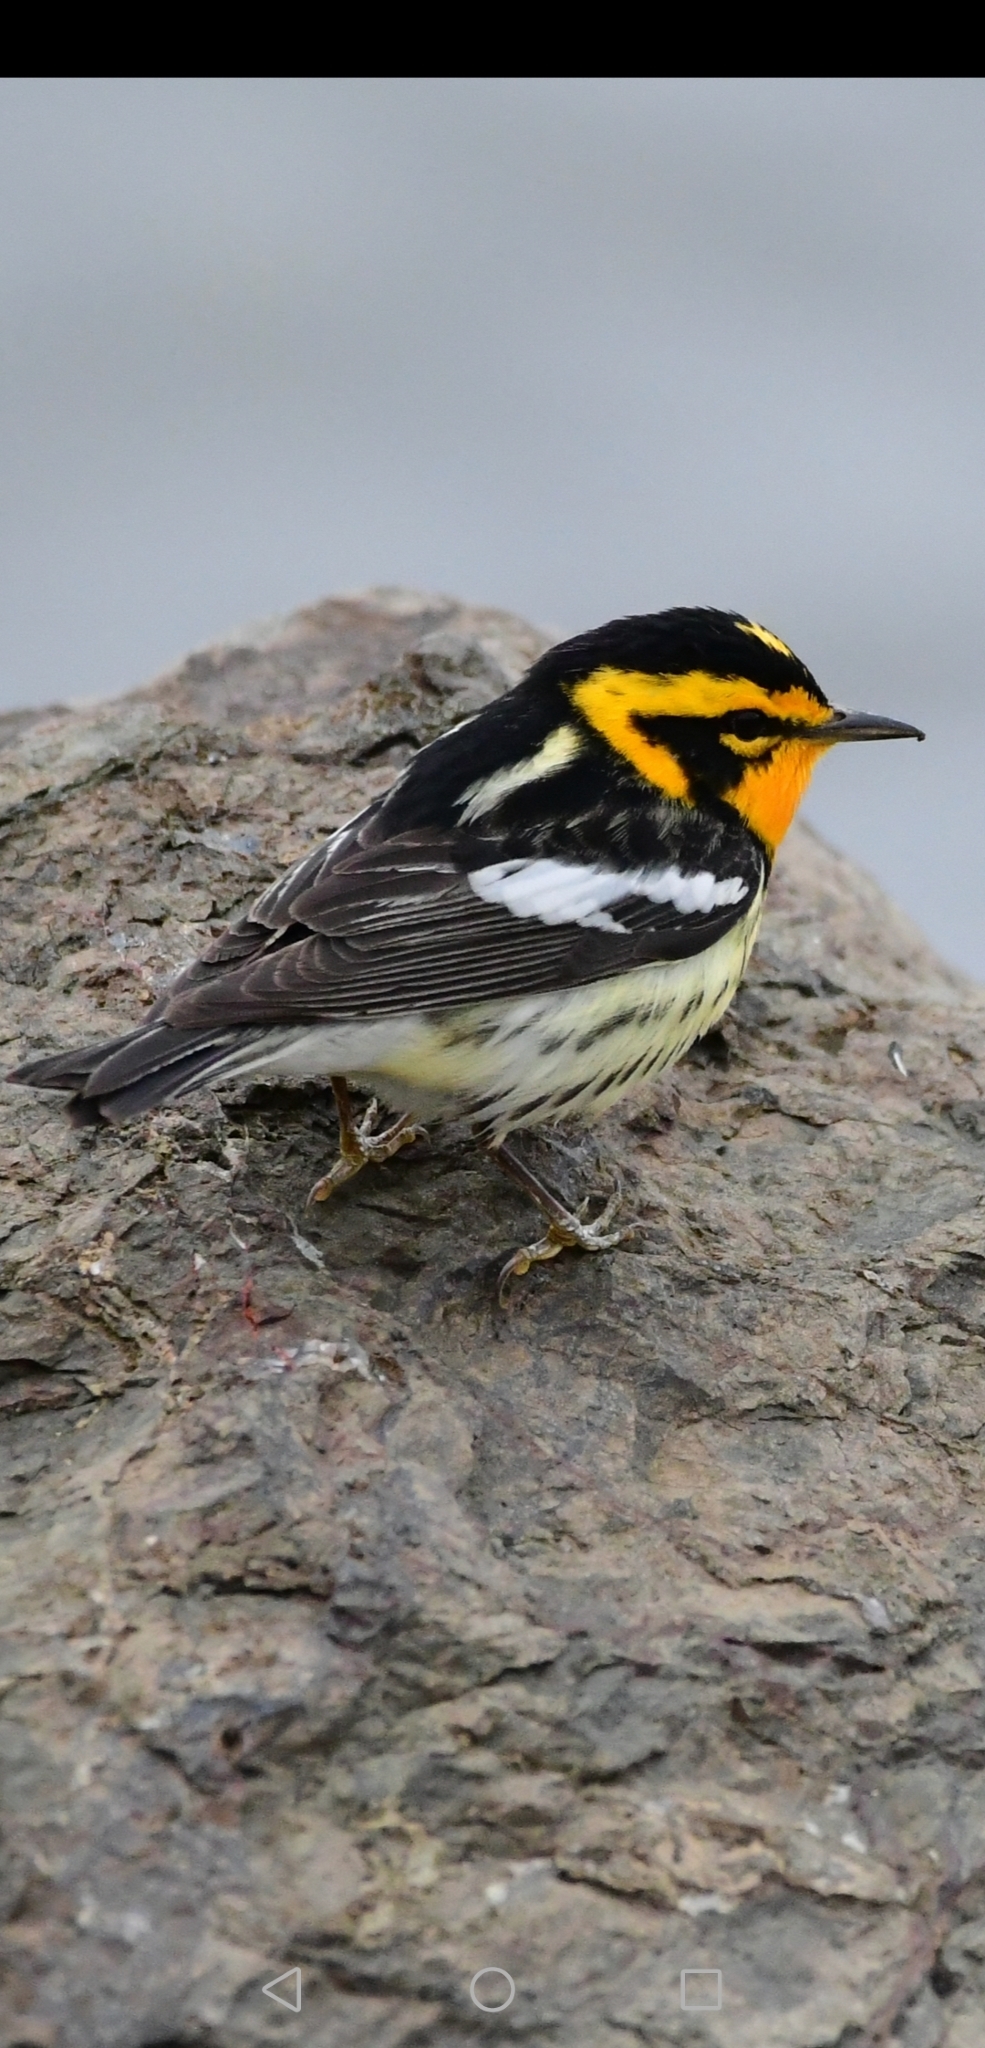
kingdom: Animalia
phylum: Chordata
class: Aves
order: Passeriformes
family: Parulidae
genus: Setophaga
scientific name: Setophaga fusca
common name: Blackburnian warbler
